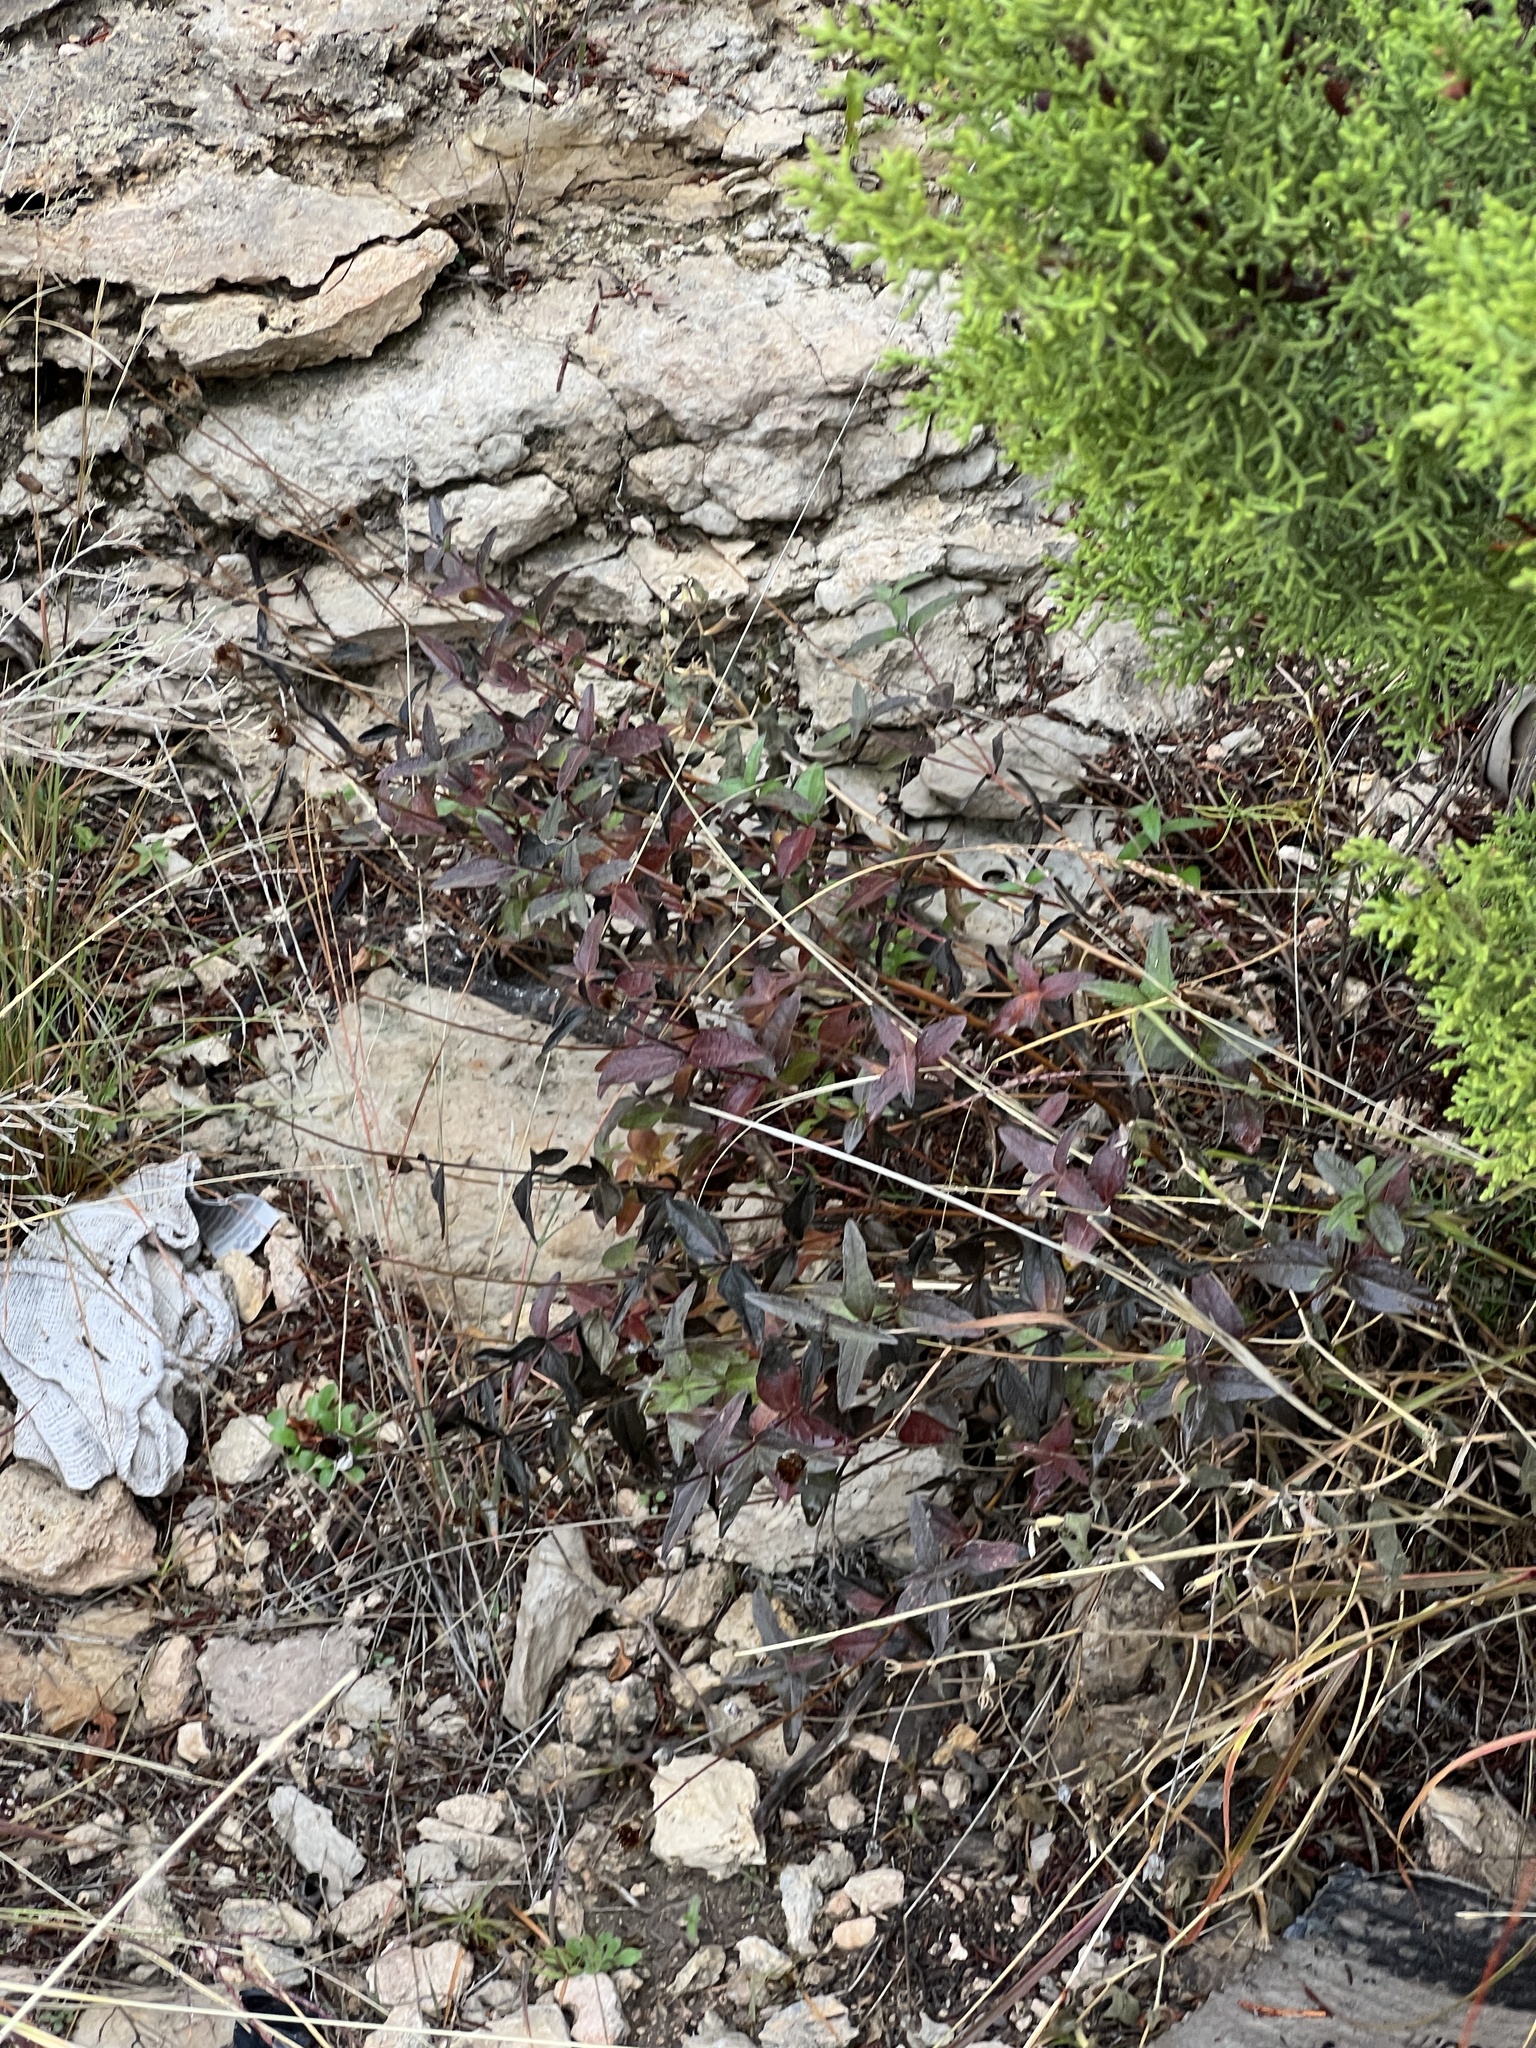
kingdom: Plantae
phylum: Tracheophyta
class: Magnoliopsida
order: Asterales
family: Asteraceae
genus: Wedelia
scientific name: Wedelia acapulcensis
